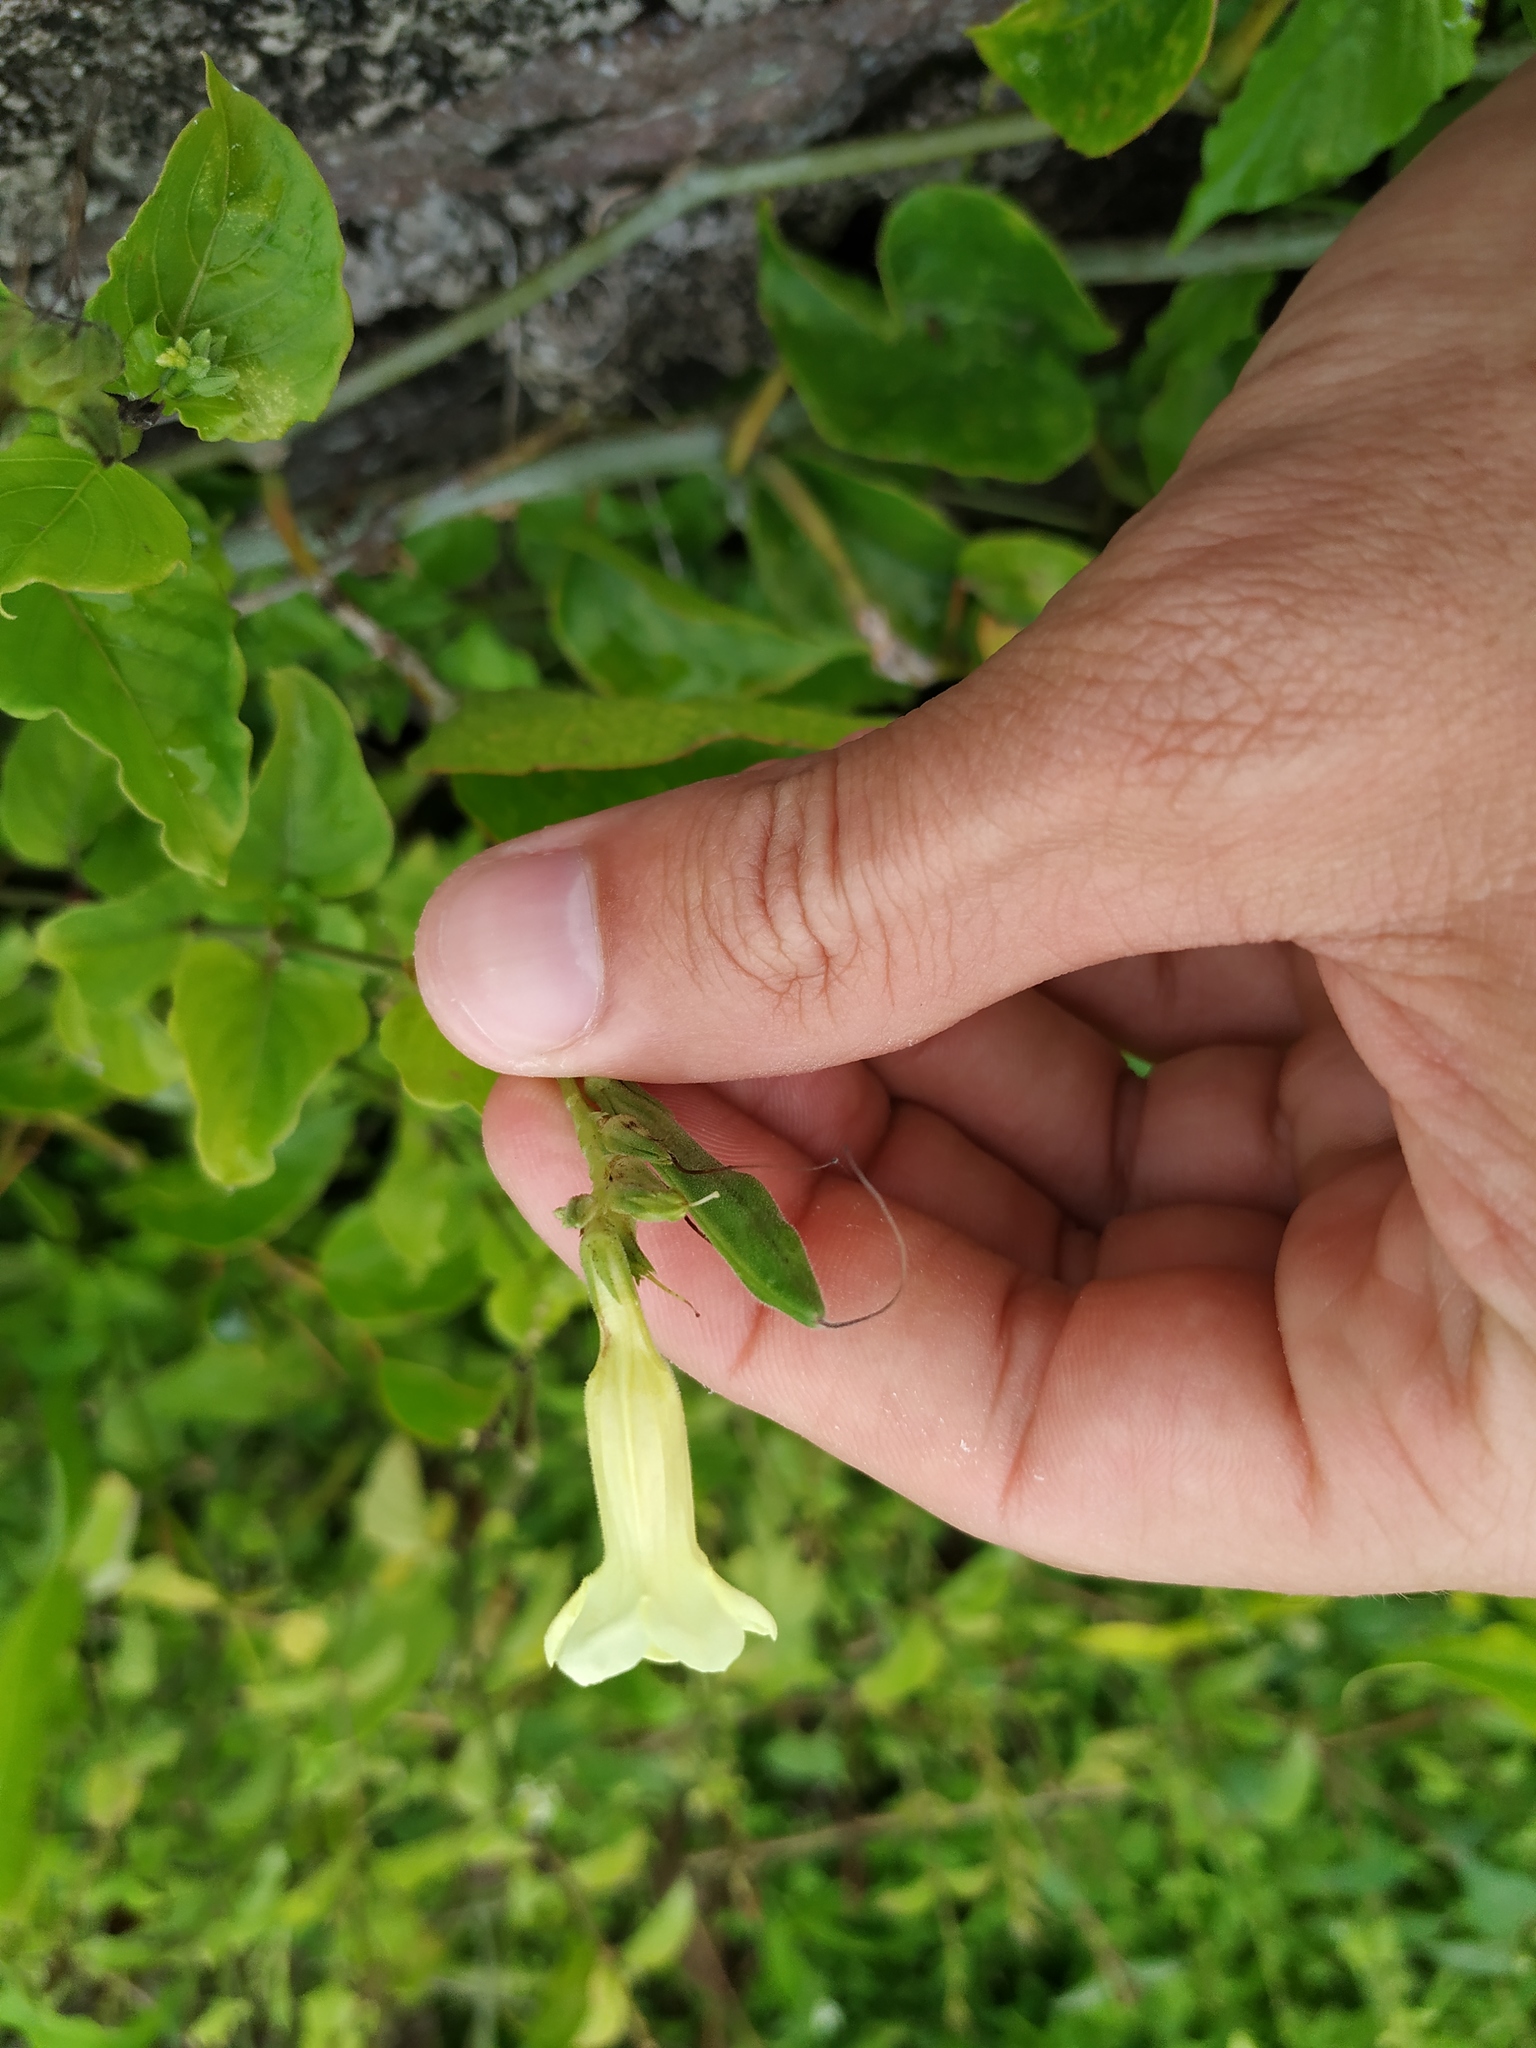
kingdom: Plantae
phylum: Tracheophyta
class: Magnoliopsida
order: Lamiales
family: Acanthaceae
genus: Asystasia
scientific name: Asystasia gangetica
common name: Chinese violet
